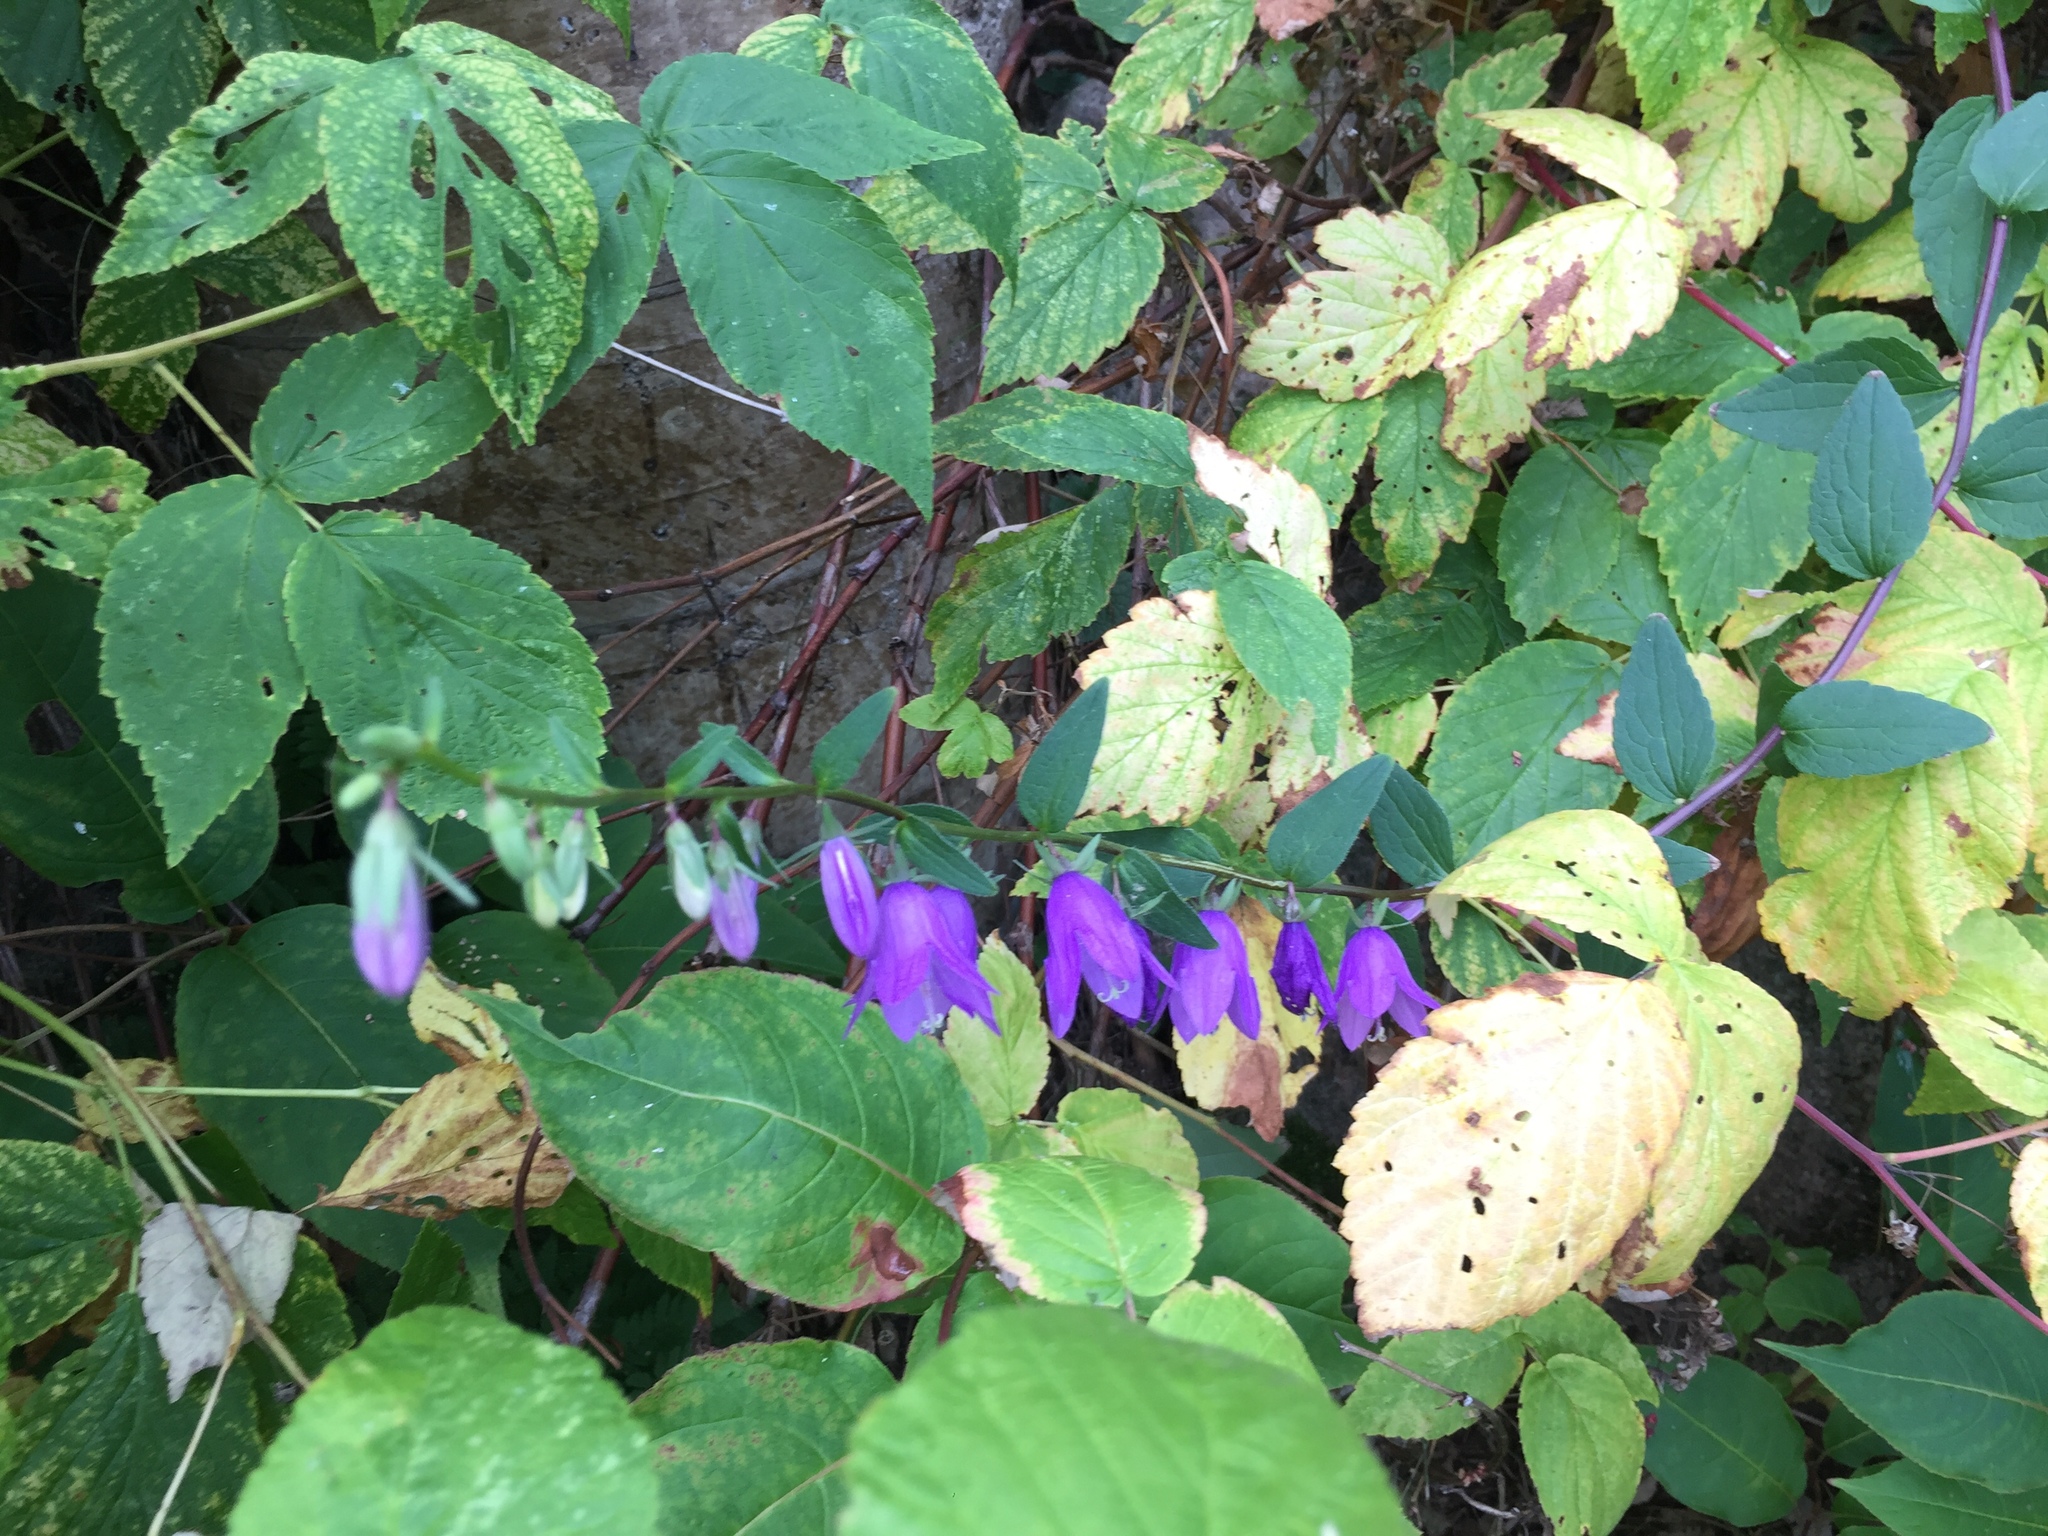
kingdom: Plantae
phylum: Tracheophyta
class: Magnoliopsida
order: Asterales
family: Campanulaceae
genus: Campanula
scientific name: Campanula rapunculoides
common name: Creeping bellflower
